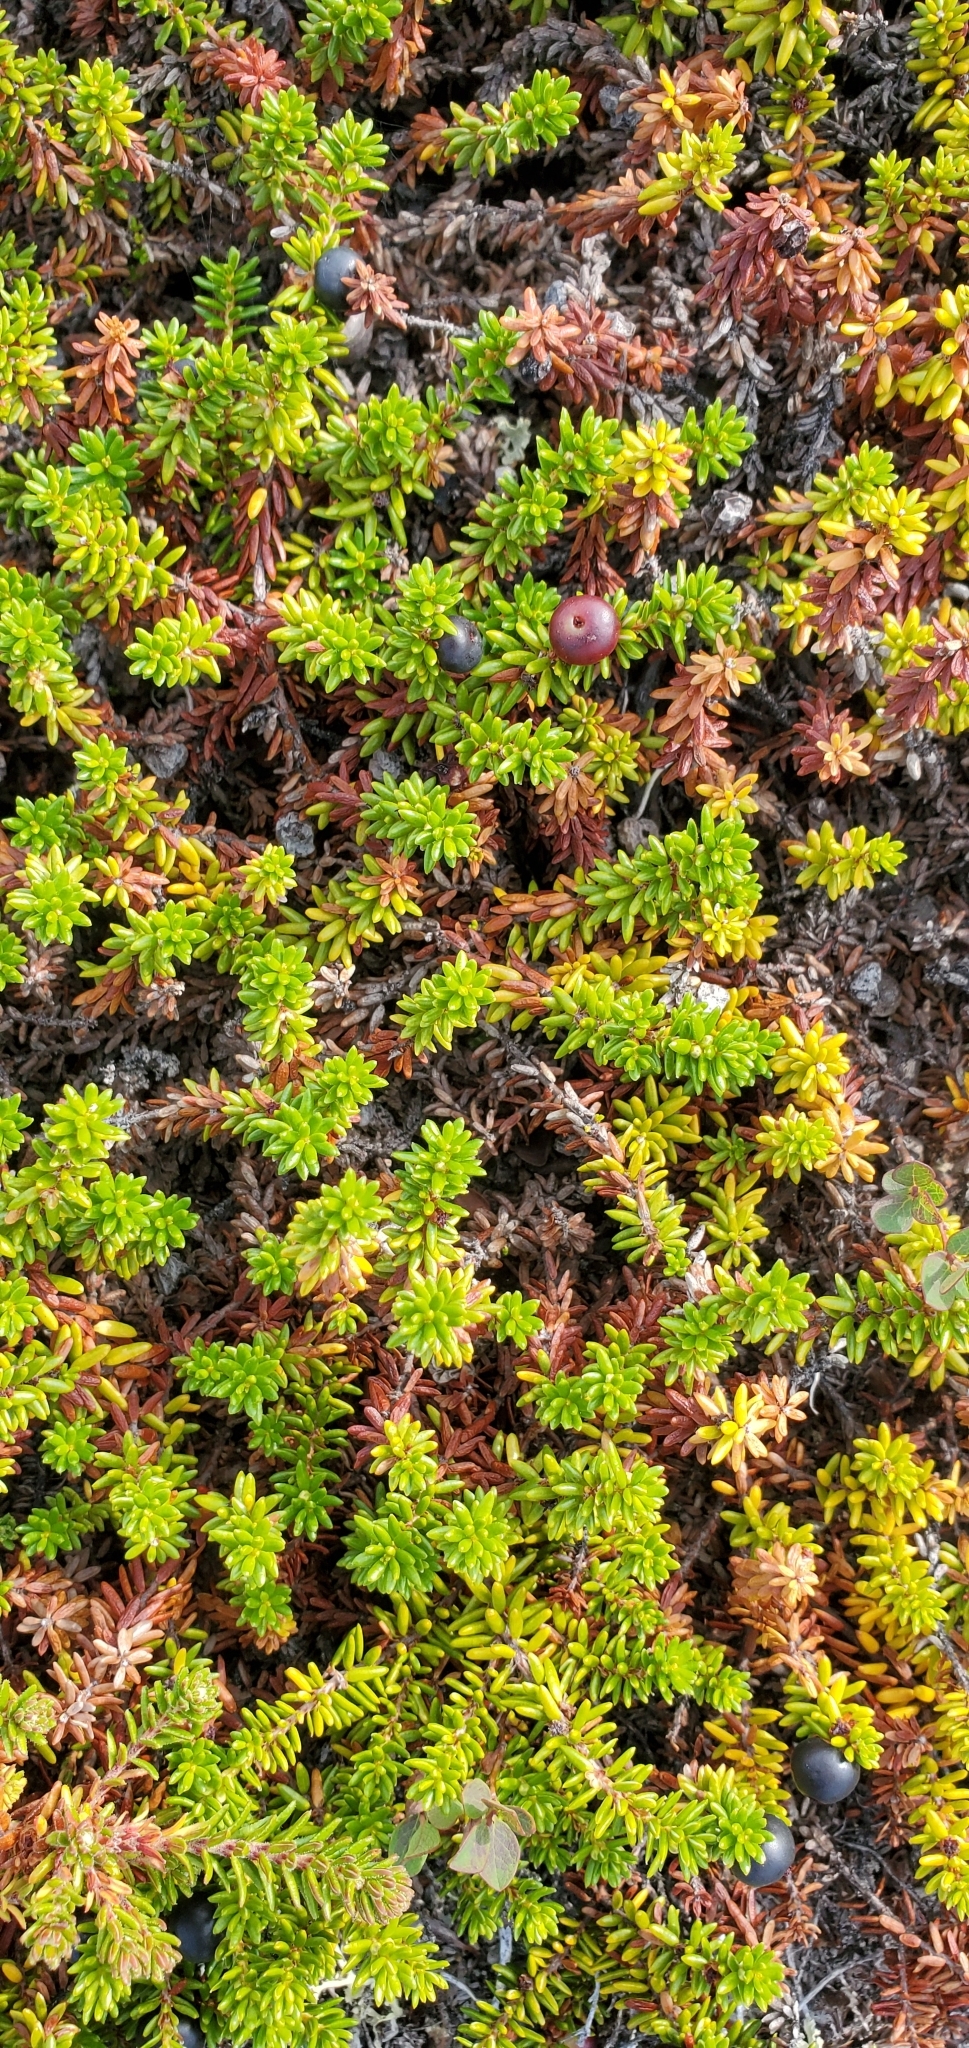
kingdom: Plantae
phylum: Tracheophyta
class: Magnoliopsida
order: Ericales
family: Ericaceae
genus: Empetrum
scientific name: Empetrum nigrum
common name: Black crowberry
